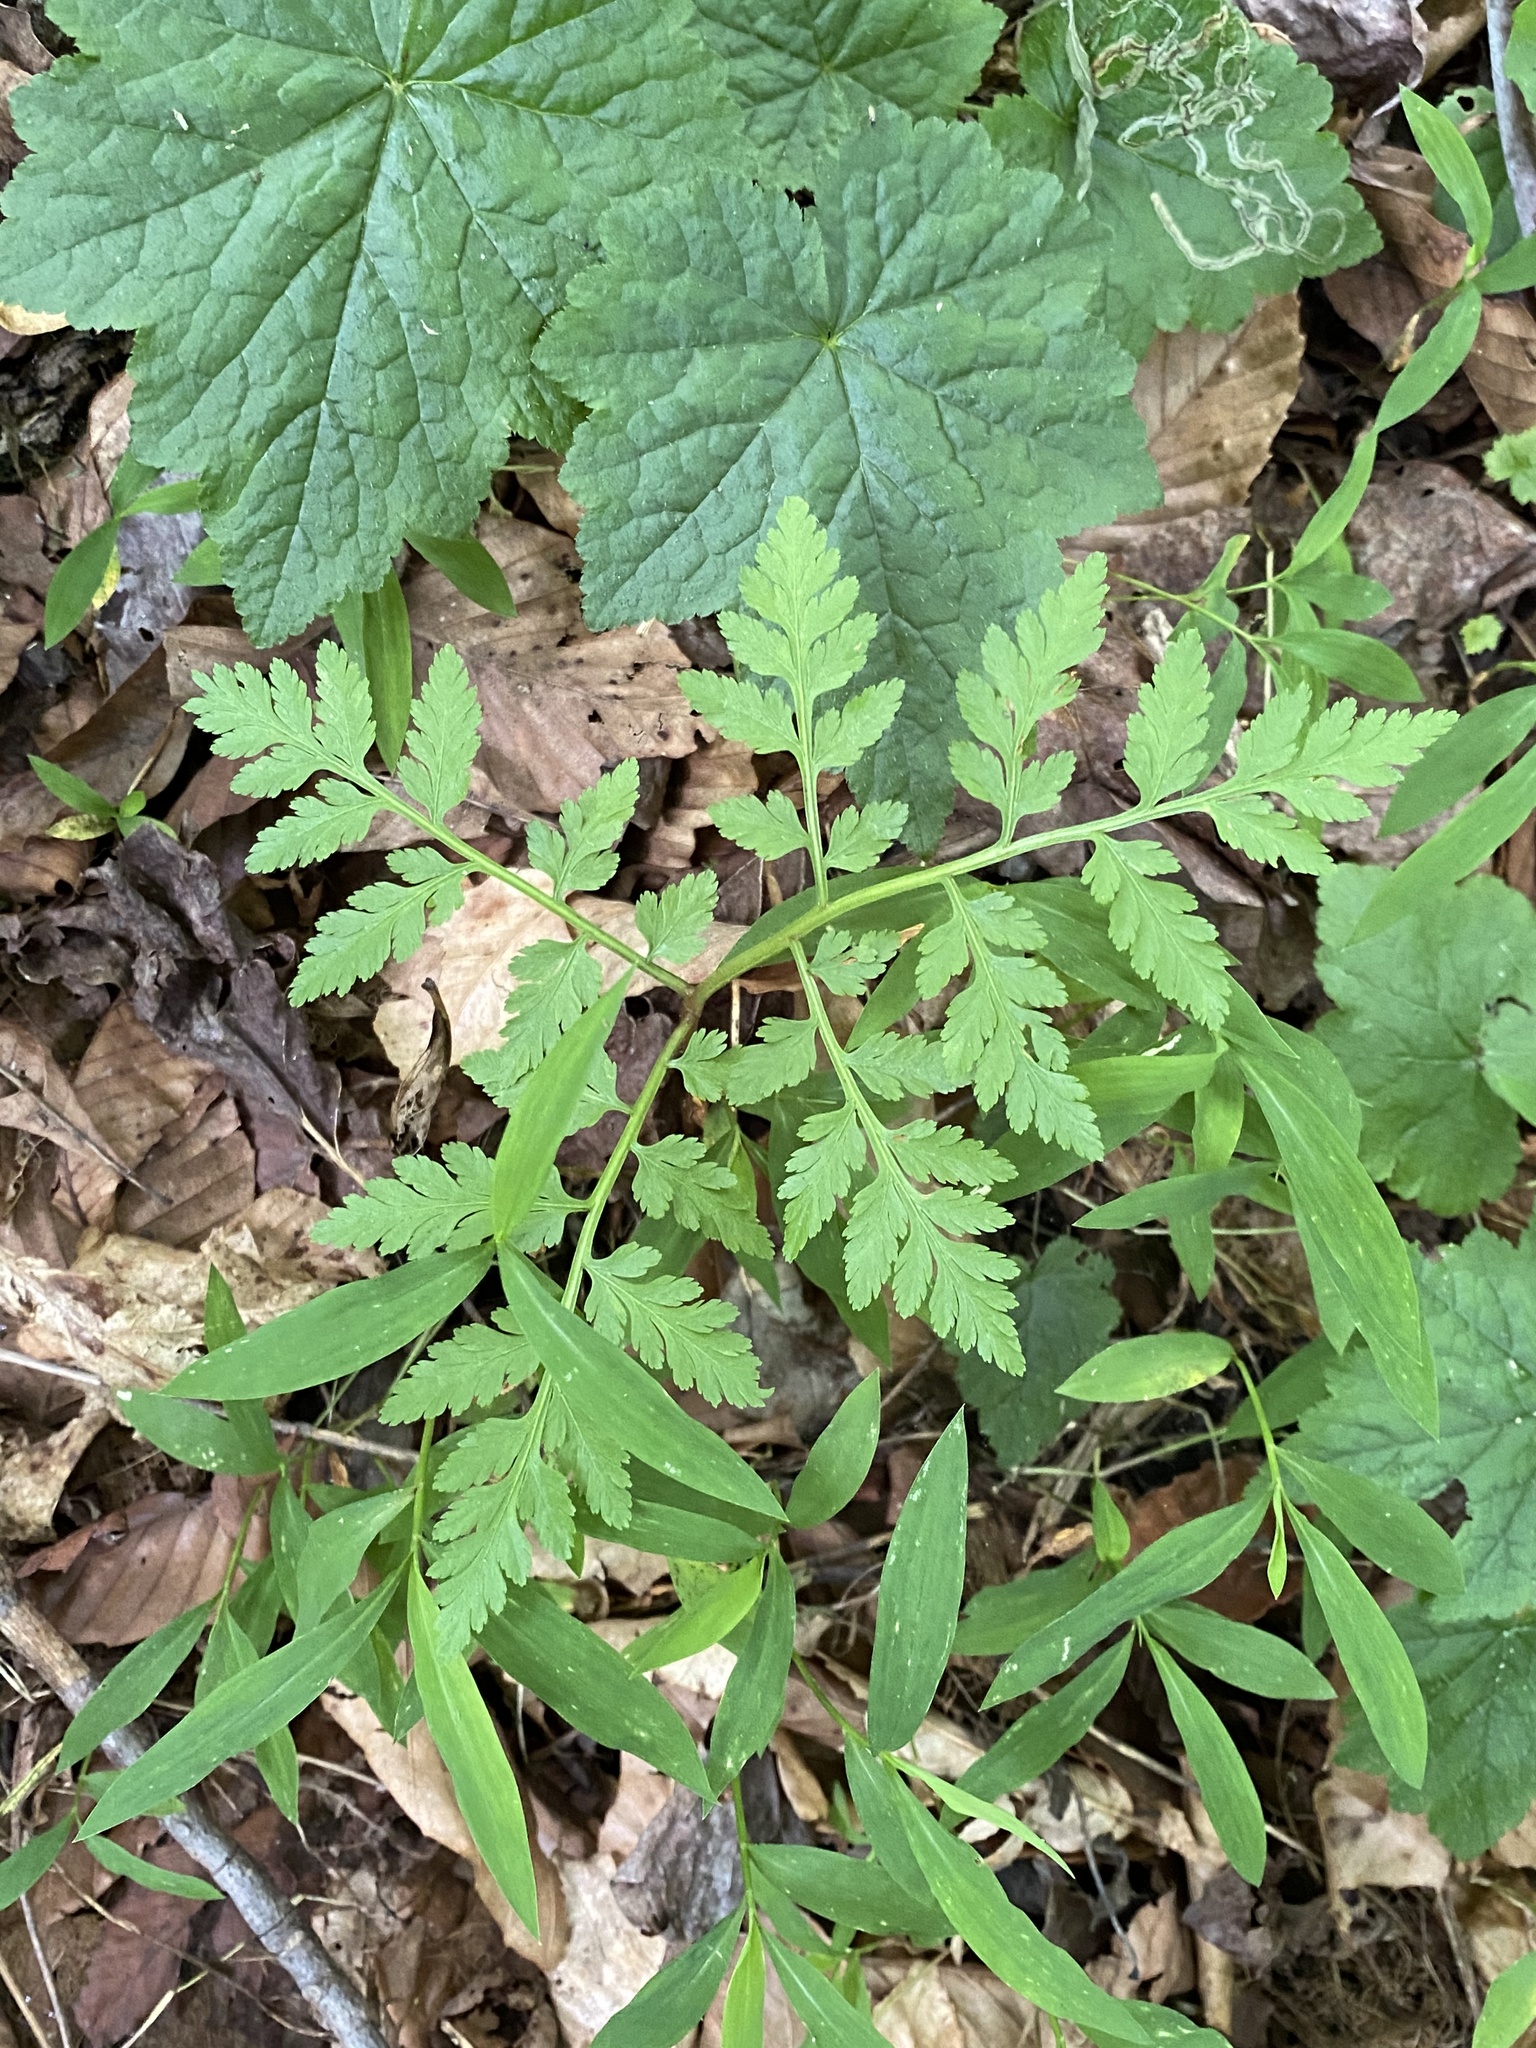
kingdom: Plantae
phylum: Tracheophyta
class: Polypodiopsida
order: Ophioglossales
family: Ophioglossaceae
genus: Botrypus
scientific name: Botrypus virginianus
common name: Common grapefern
